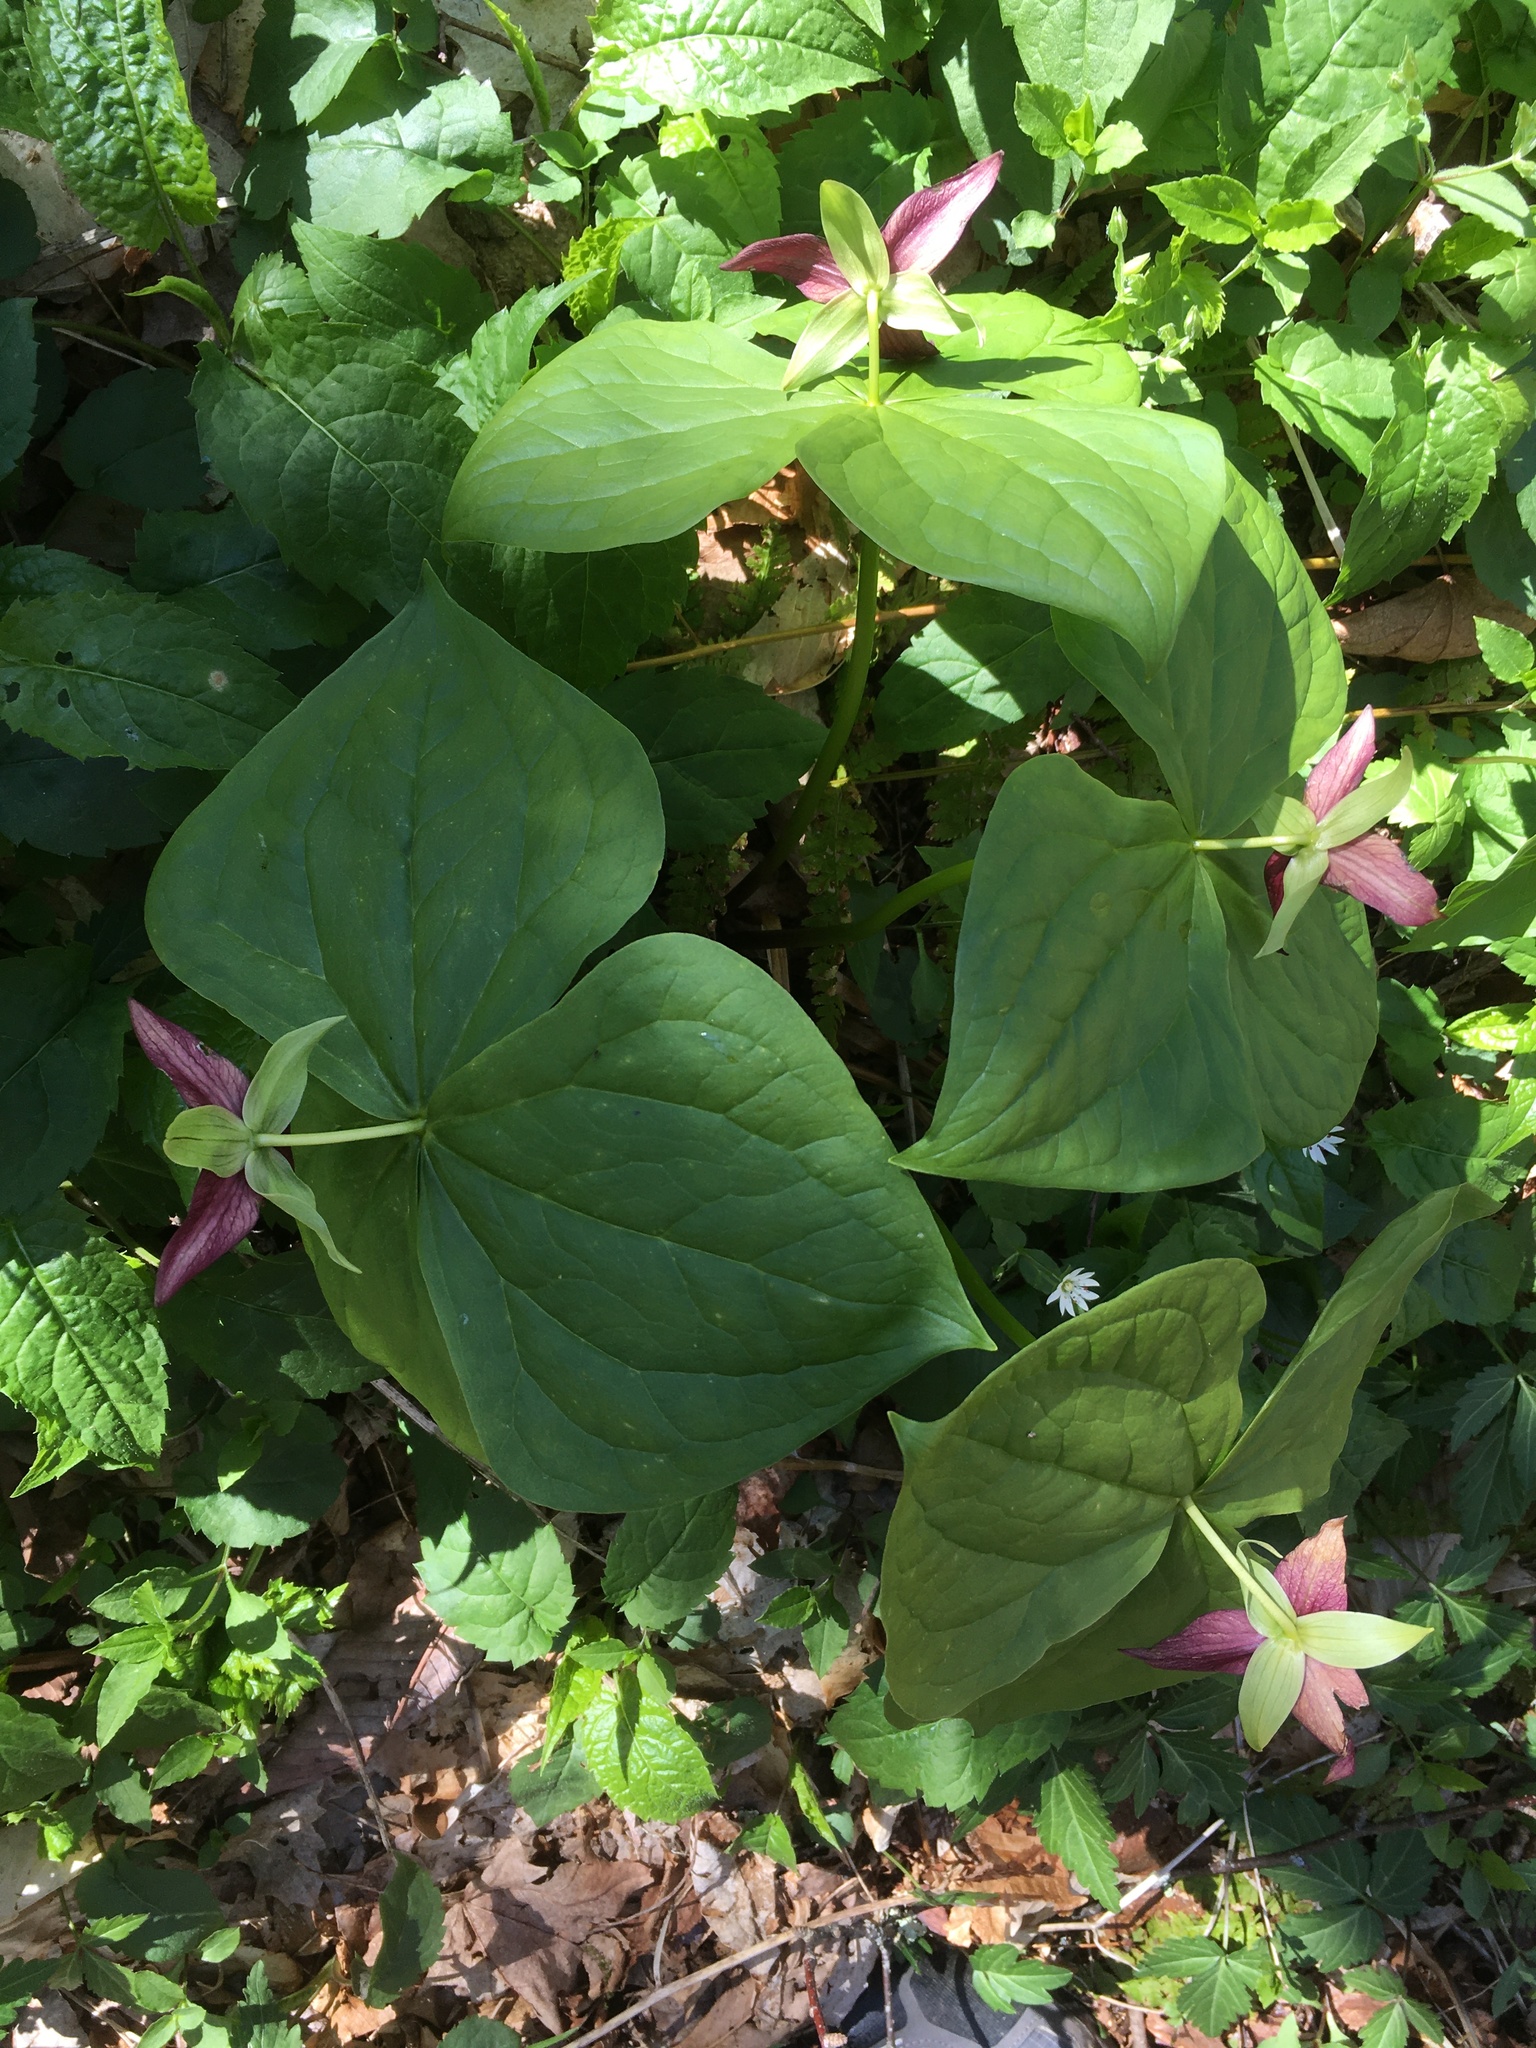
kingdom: Plantae
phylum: Tracheophyta
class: Liliopsida
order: Liliales
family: Melanthiaceae
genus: Trillium
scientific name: Trillium erectum
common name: Purple trillium
